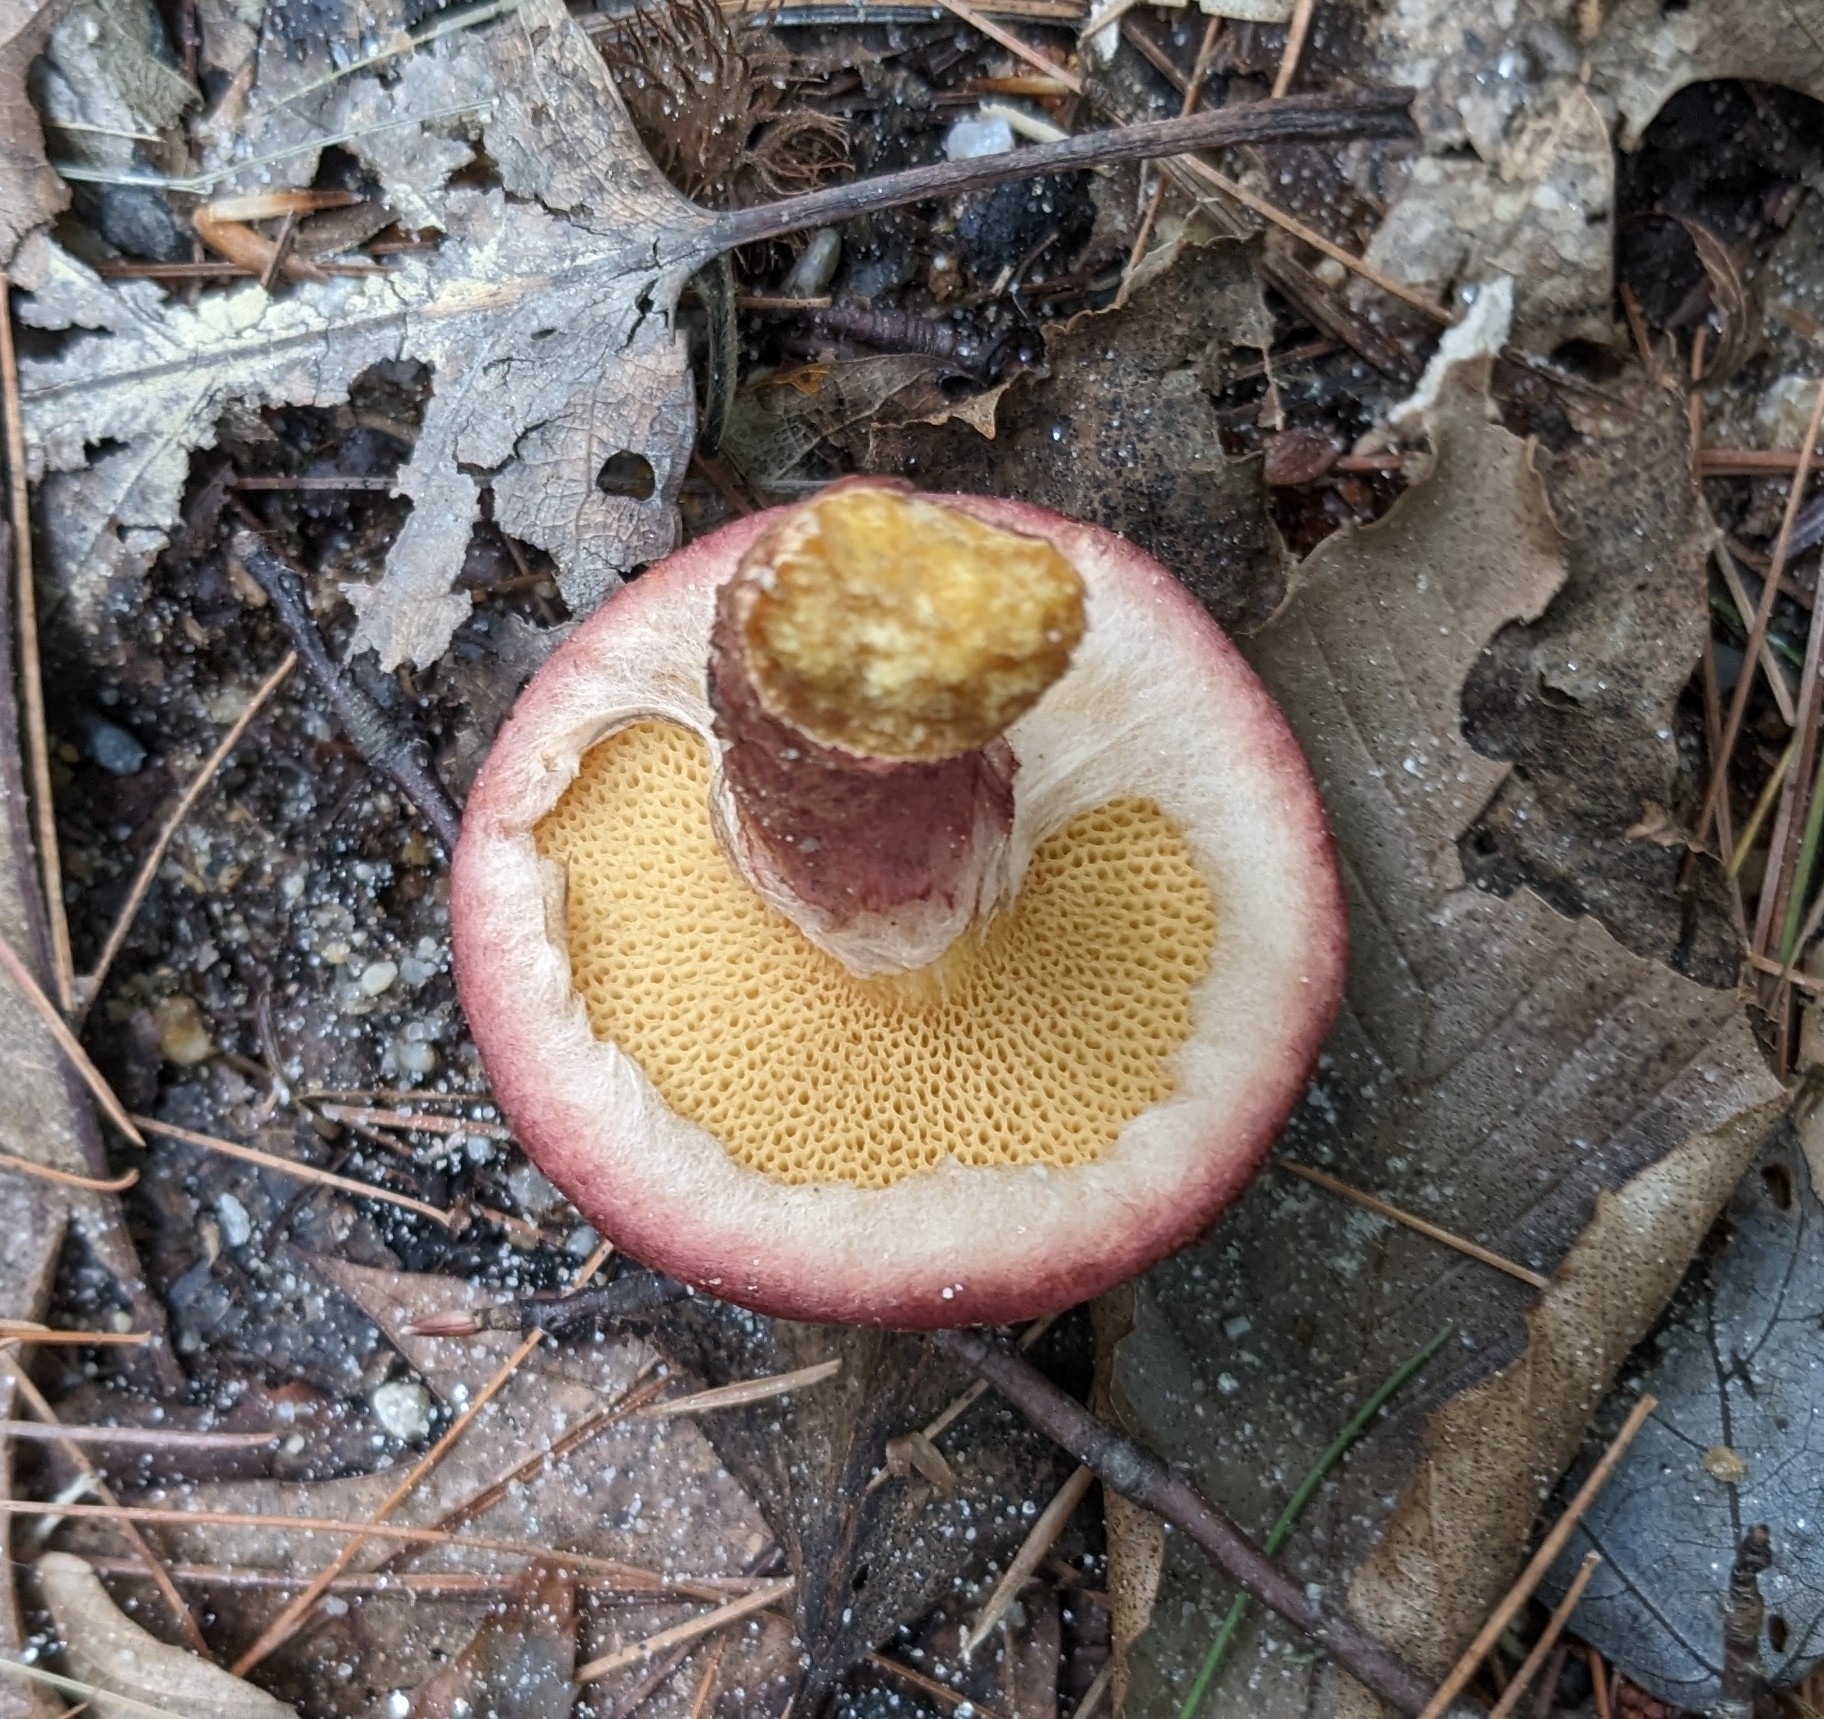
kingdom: Fungi
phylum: Basidiomycota
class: Agaricomycetes
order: Boletales
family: Suillaceae
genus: Suillus
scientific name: Suillus spraguei
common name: Painted suillus
